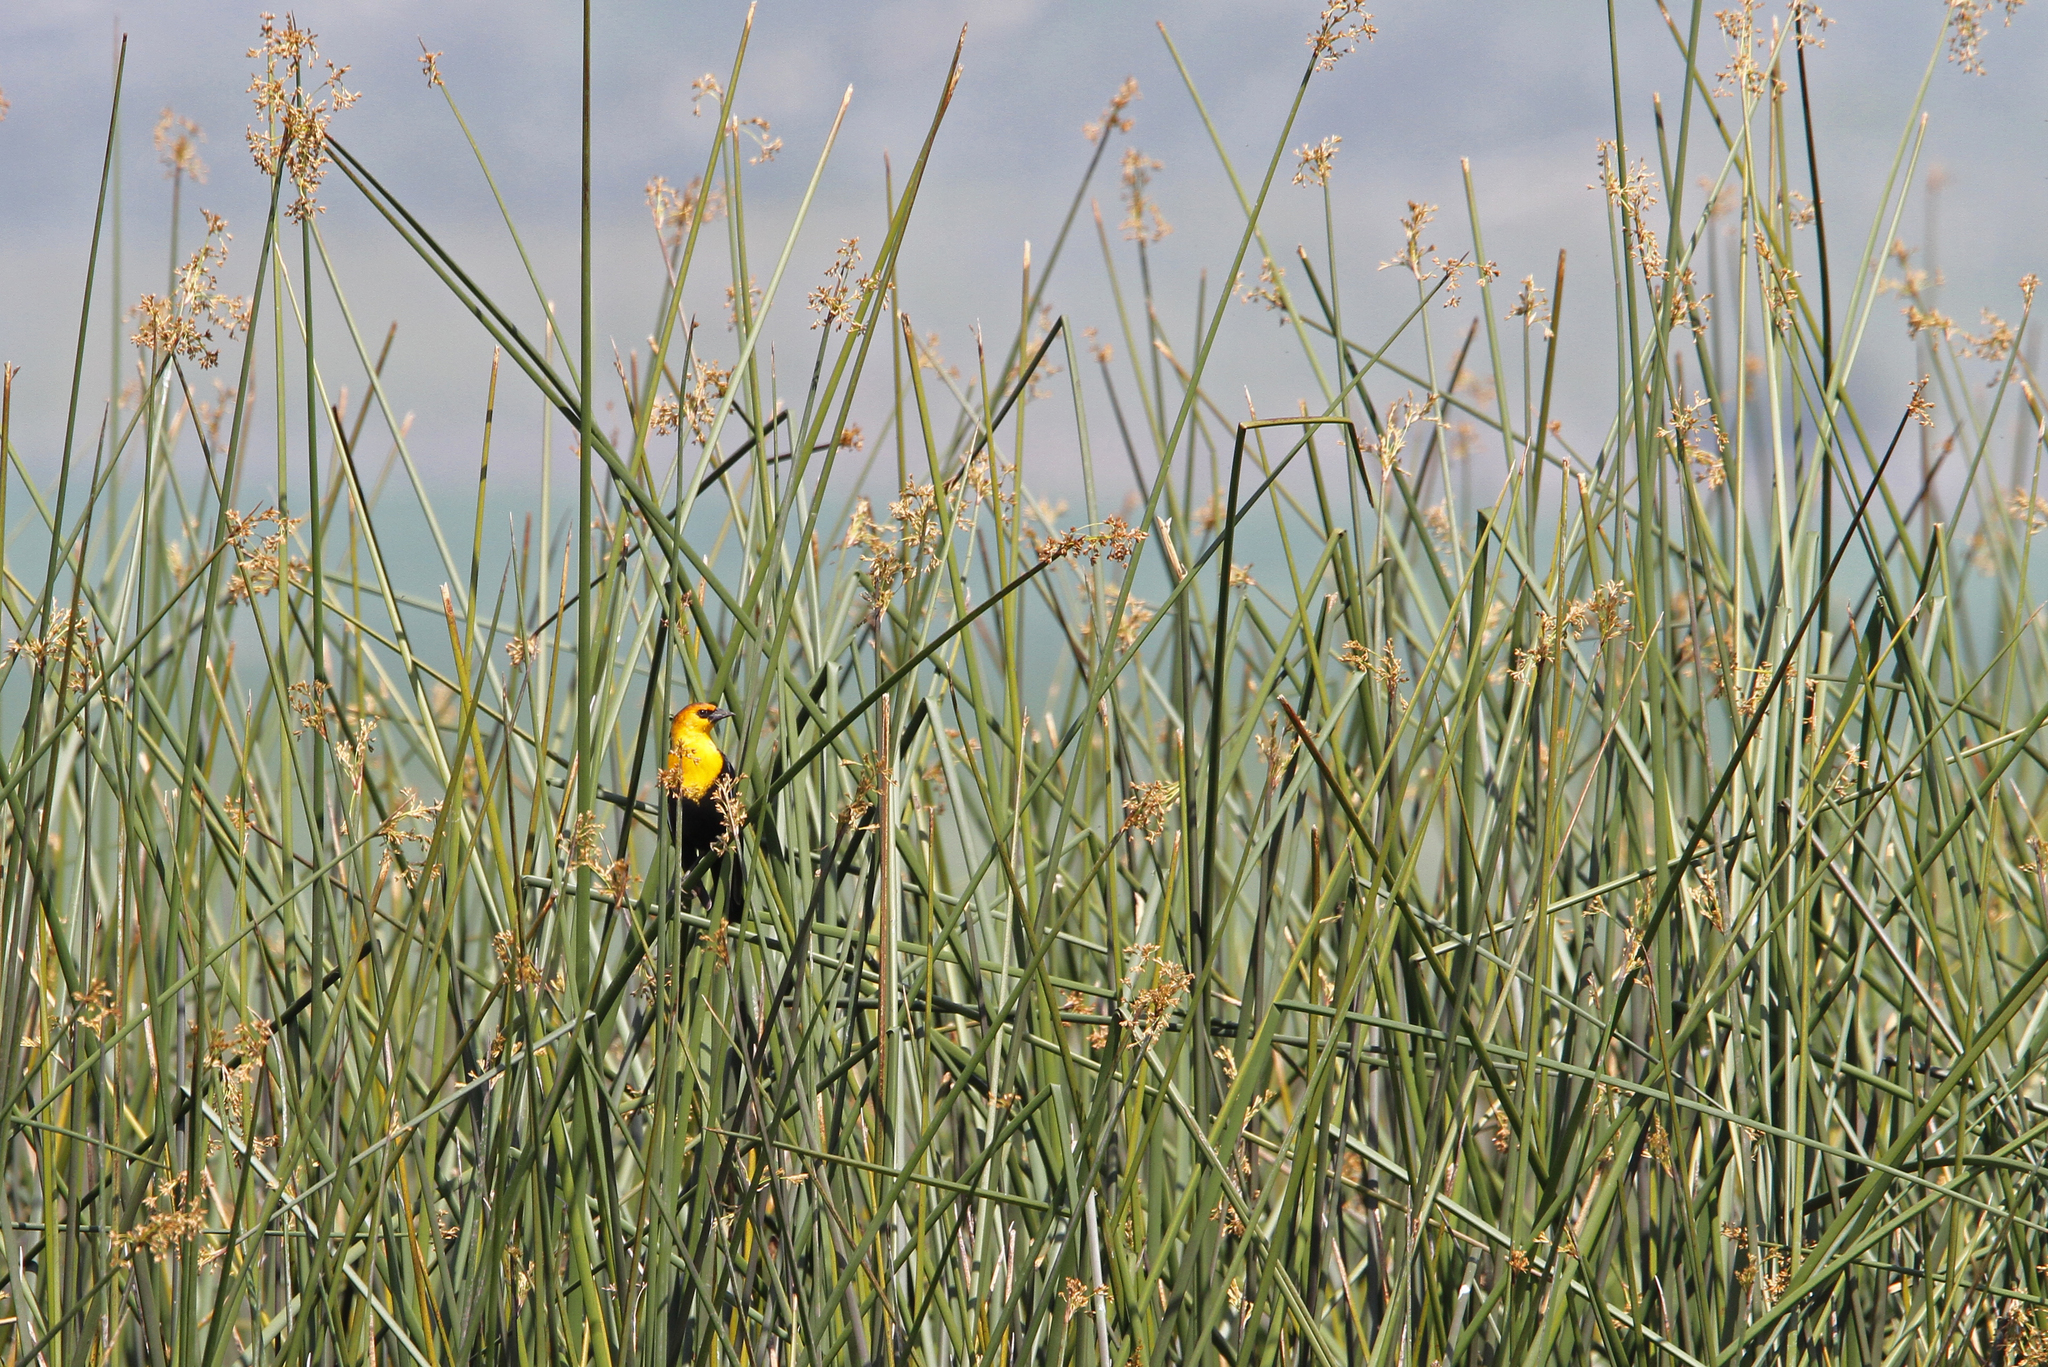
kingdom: Animalia
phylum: Chordata
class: Aves
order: Passeriformes
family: Icteridae
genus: Xanthocephalus
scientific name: Xanthocephalus xanthocephalus
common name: Yellow-headed blackbird
